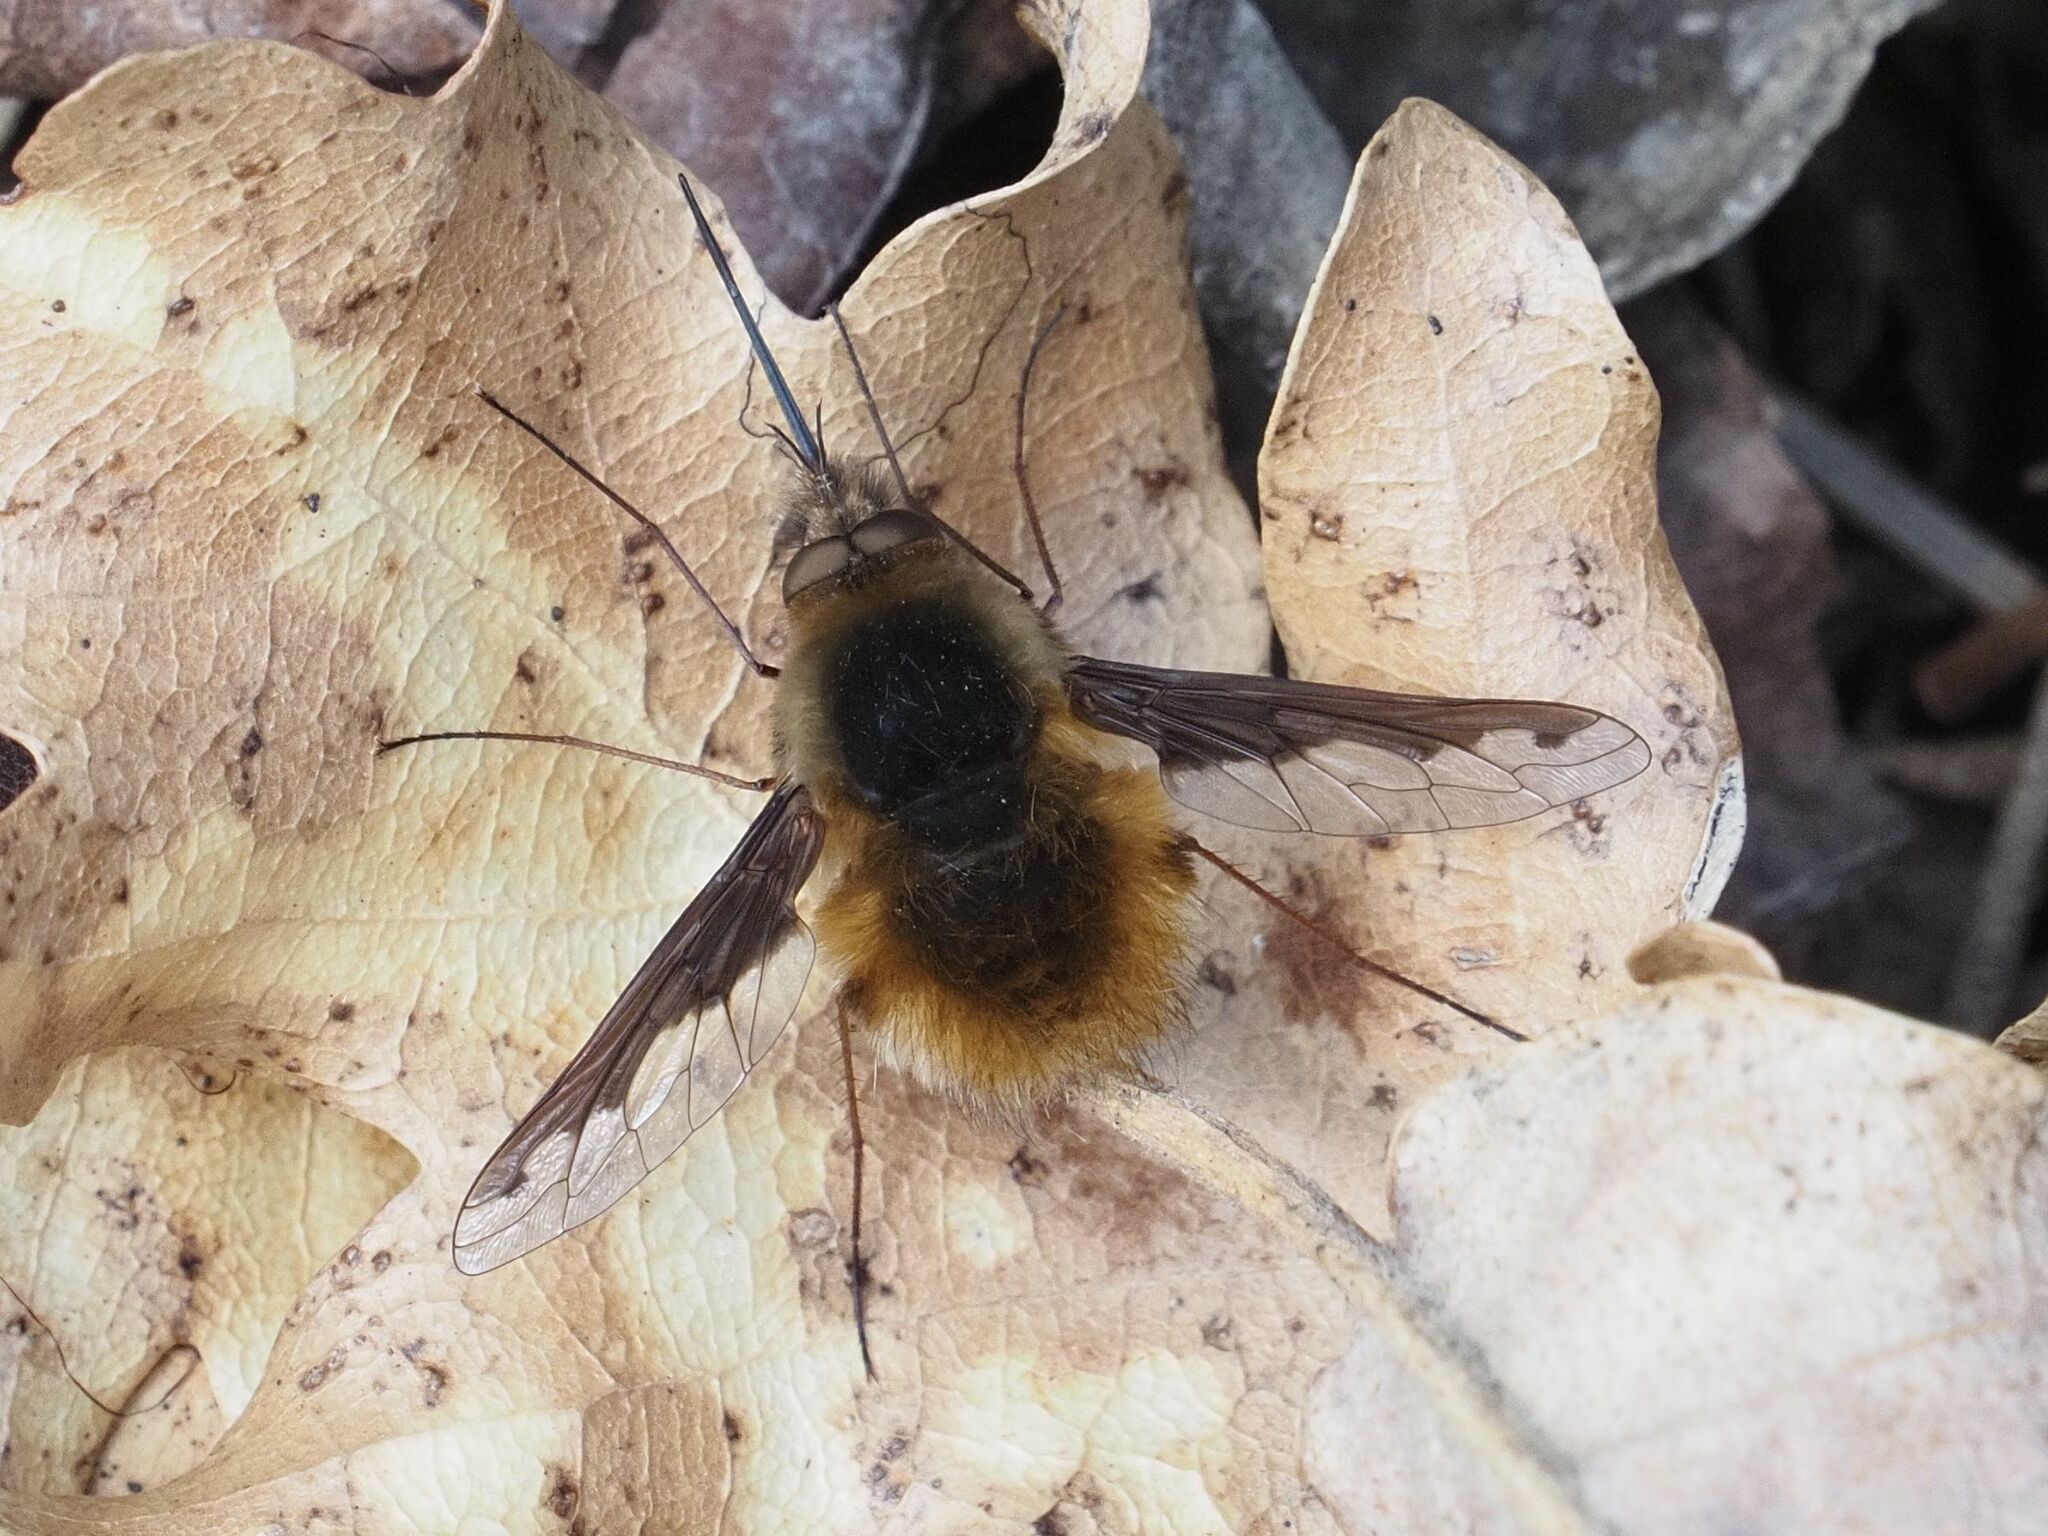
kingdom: Animalia
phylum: Arthropoda
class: Insecta
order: Diptera
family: Bombyliidae
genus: Bombylius
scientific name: Bombylius major
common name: Bee fly
